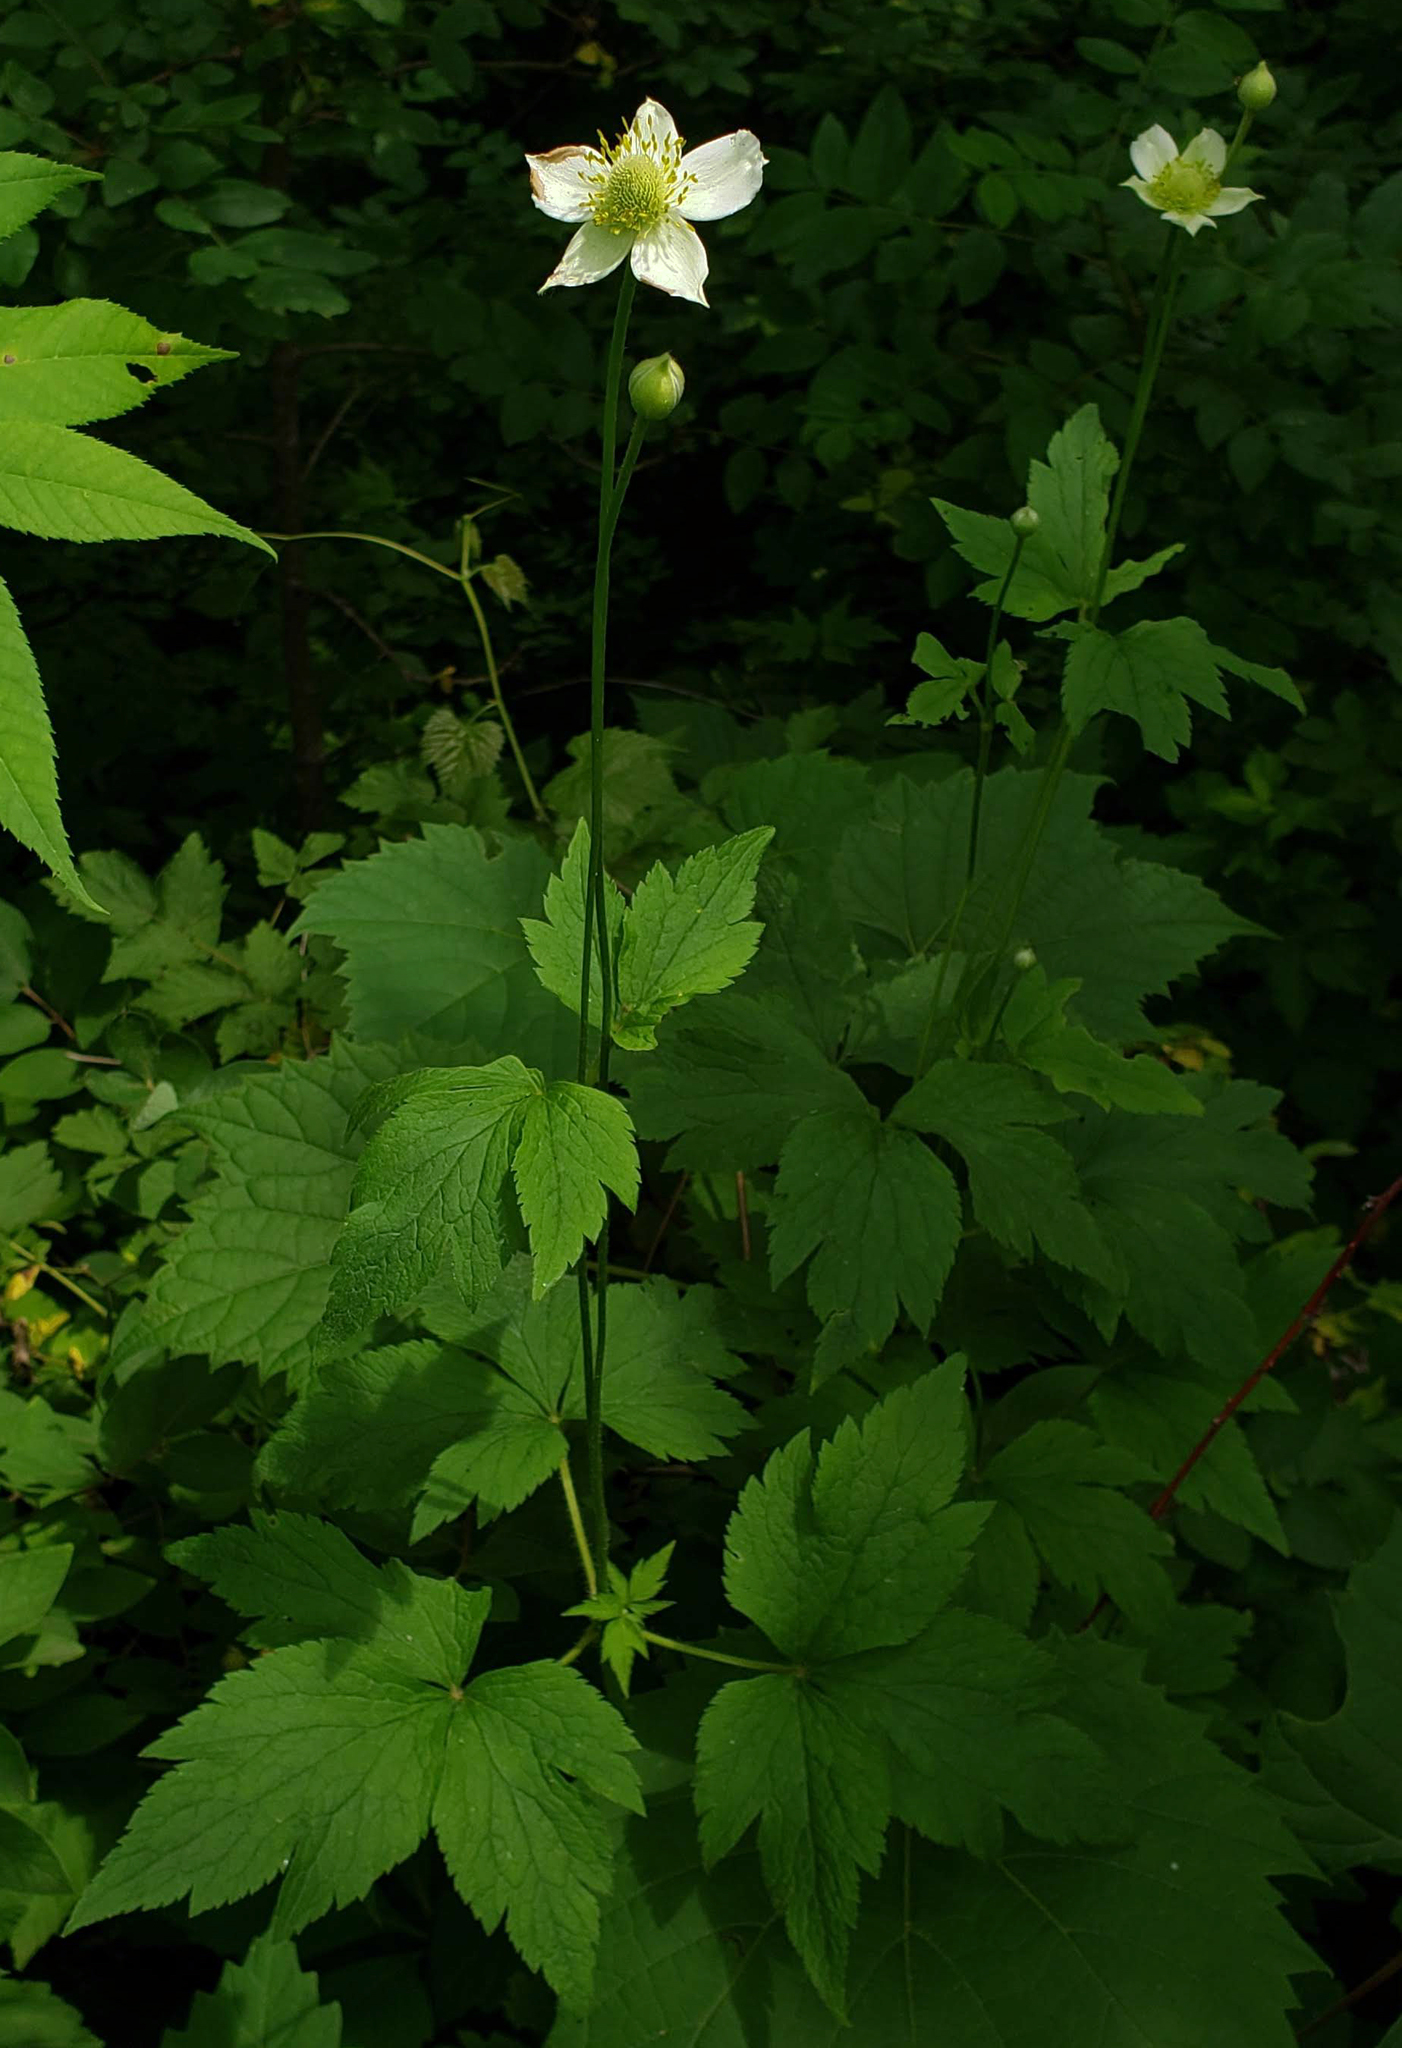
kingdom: Plantae
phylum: Tracheophyta
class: Magnoliopsida
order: Ranunculales
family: Ranunculaceae
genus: Anemone
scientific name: Anemone virginiana
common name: Tall anemone
